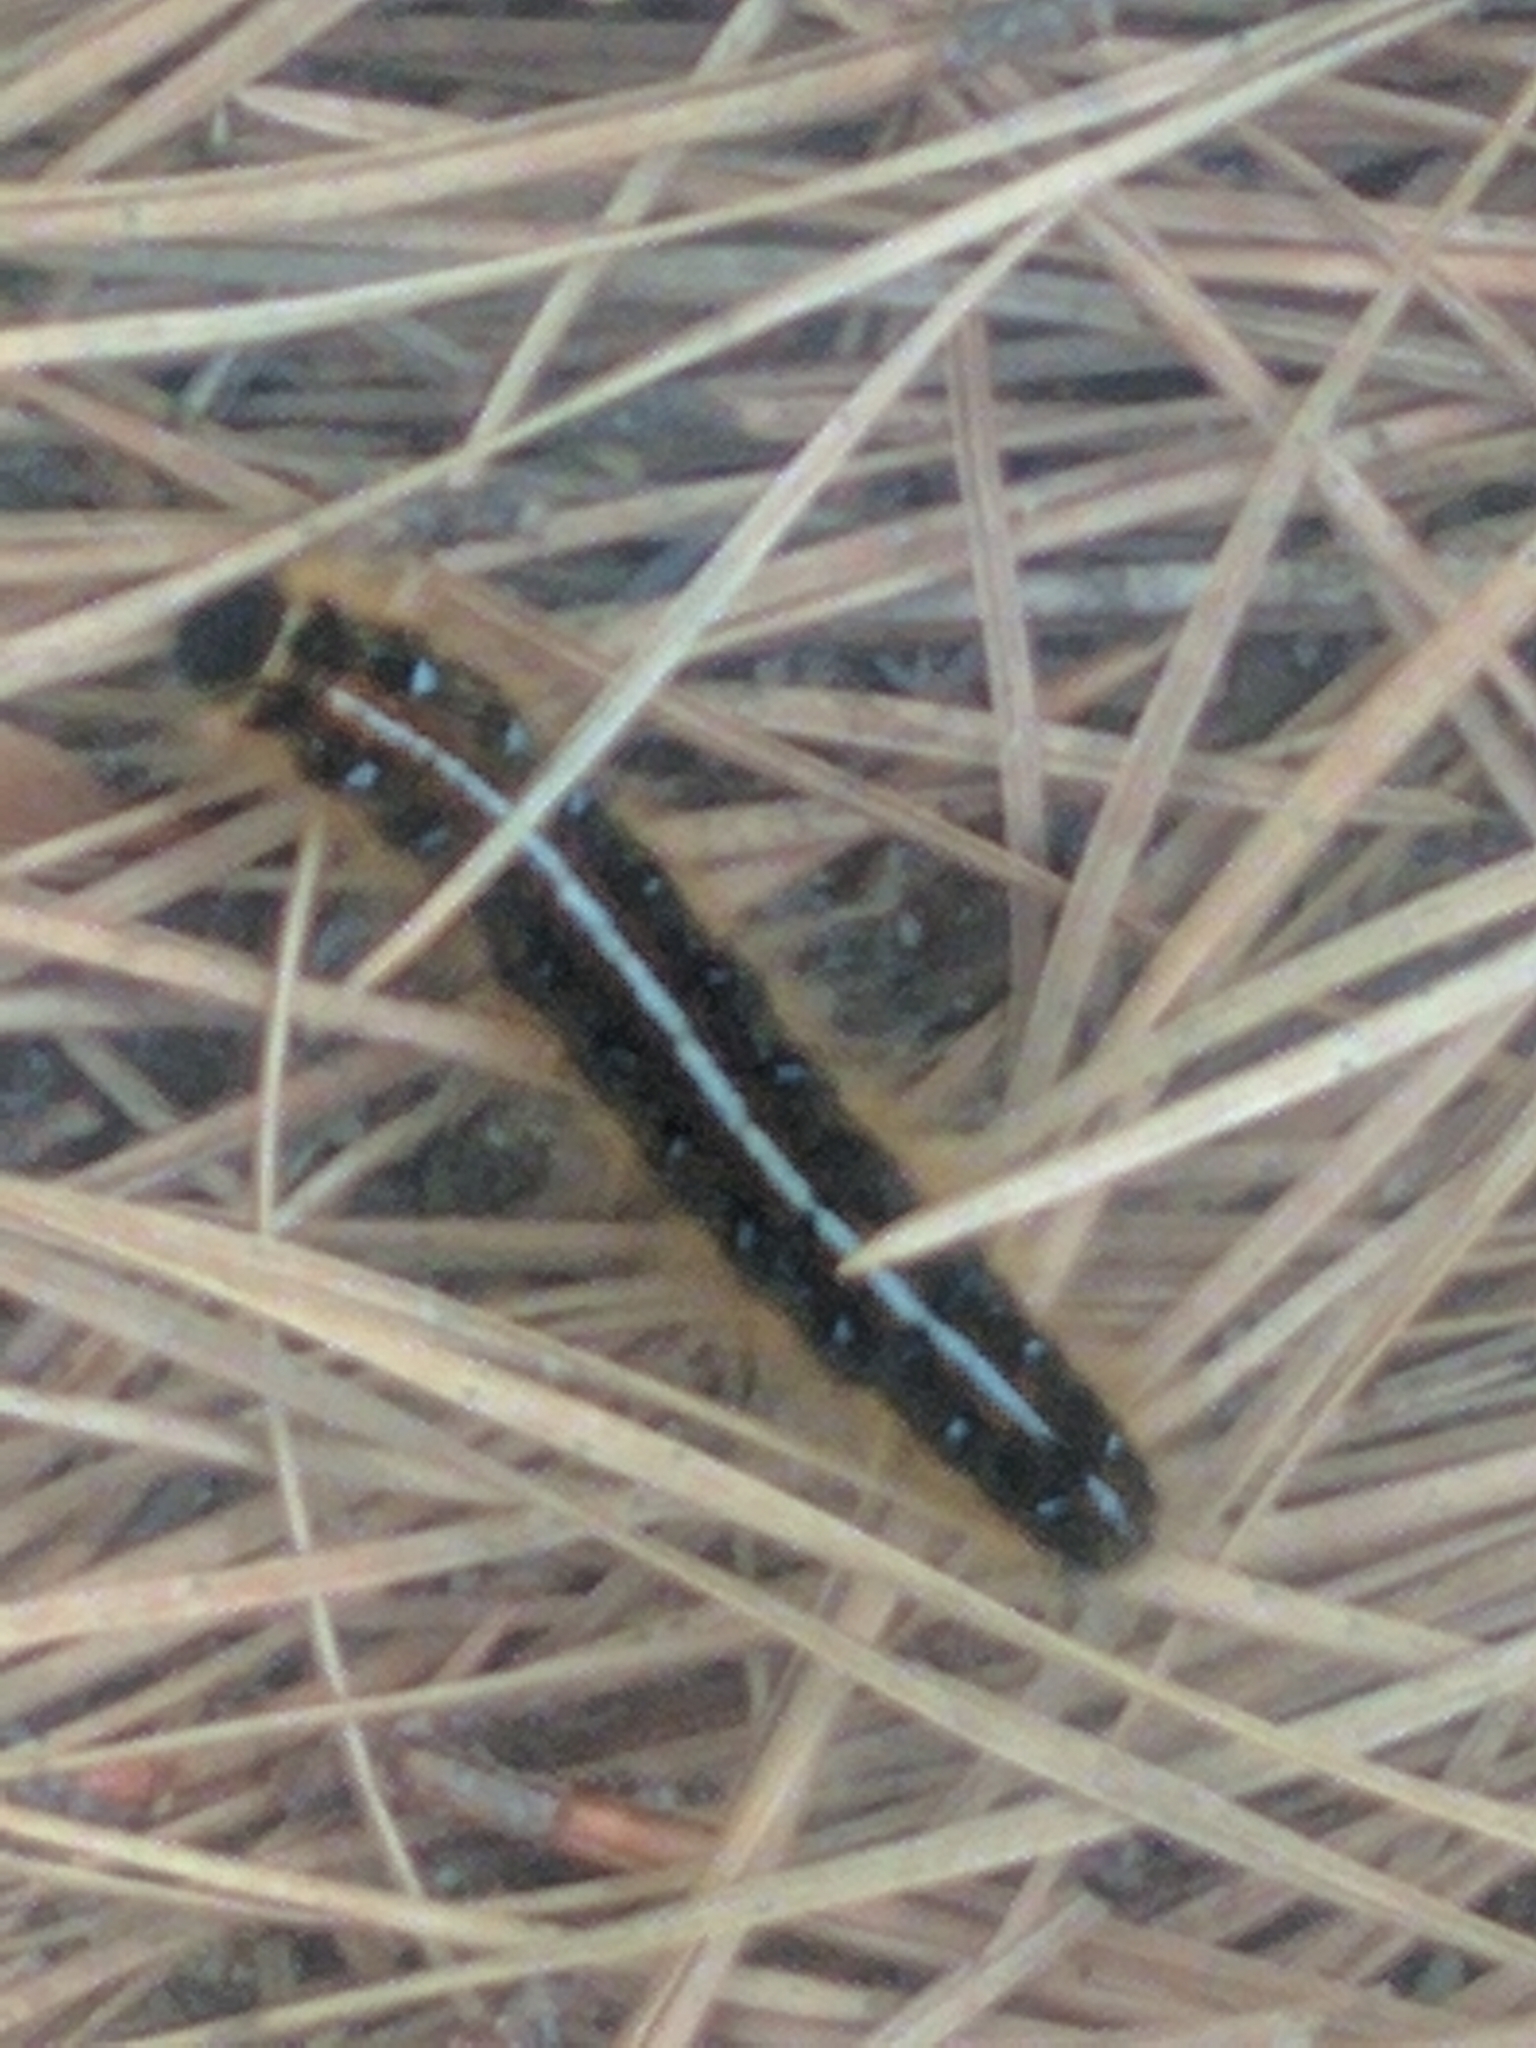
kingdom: Animalia
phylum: Arthropoda
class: Insecta
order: Lepidoptera
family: Lasiocampidae
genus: Malacosoma
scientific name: Malacosoma americana
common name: Eastern tent caterpillar moth
